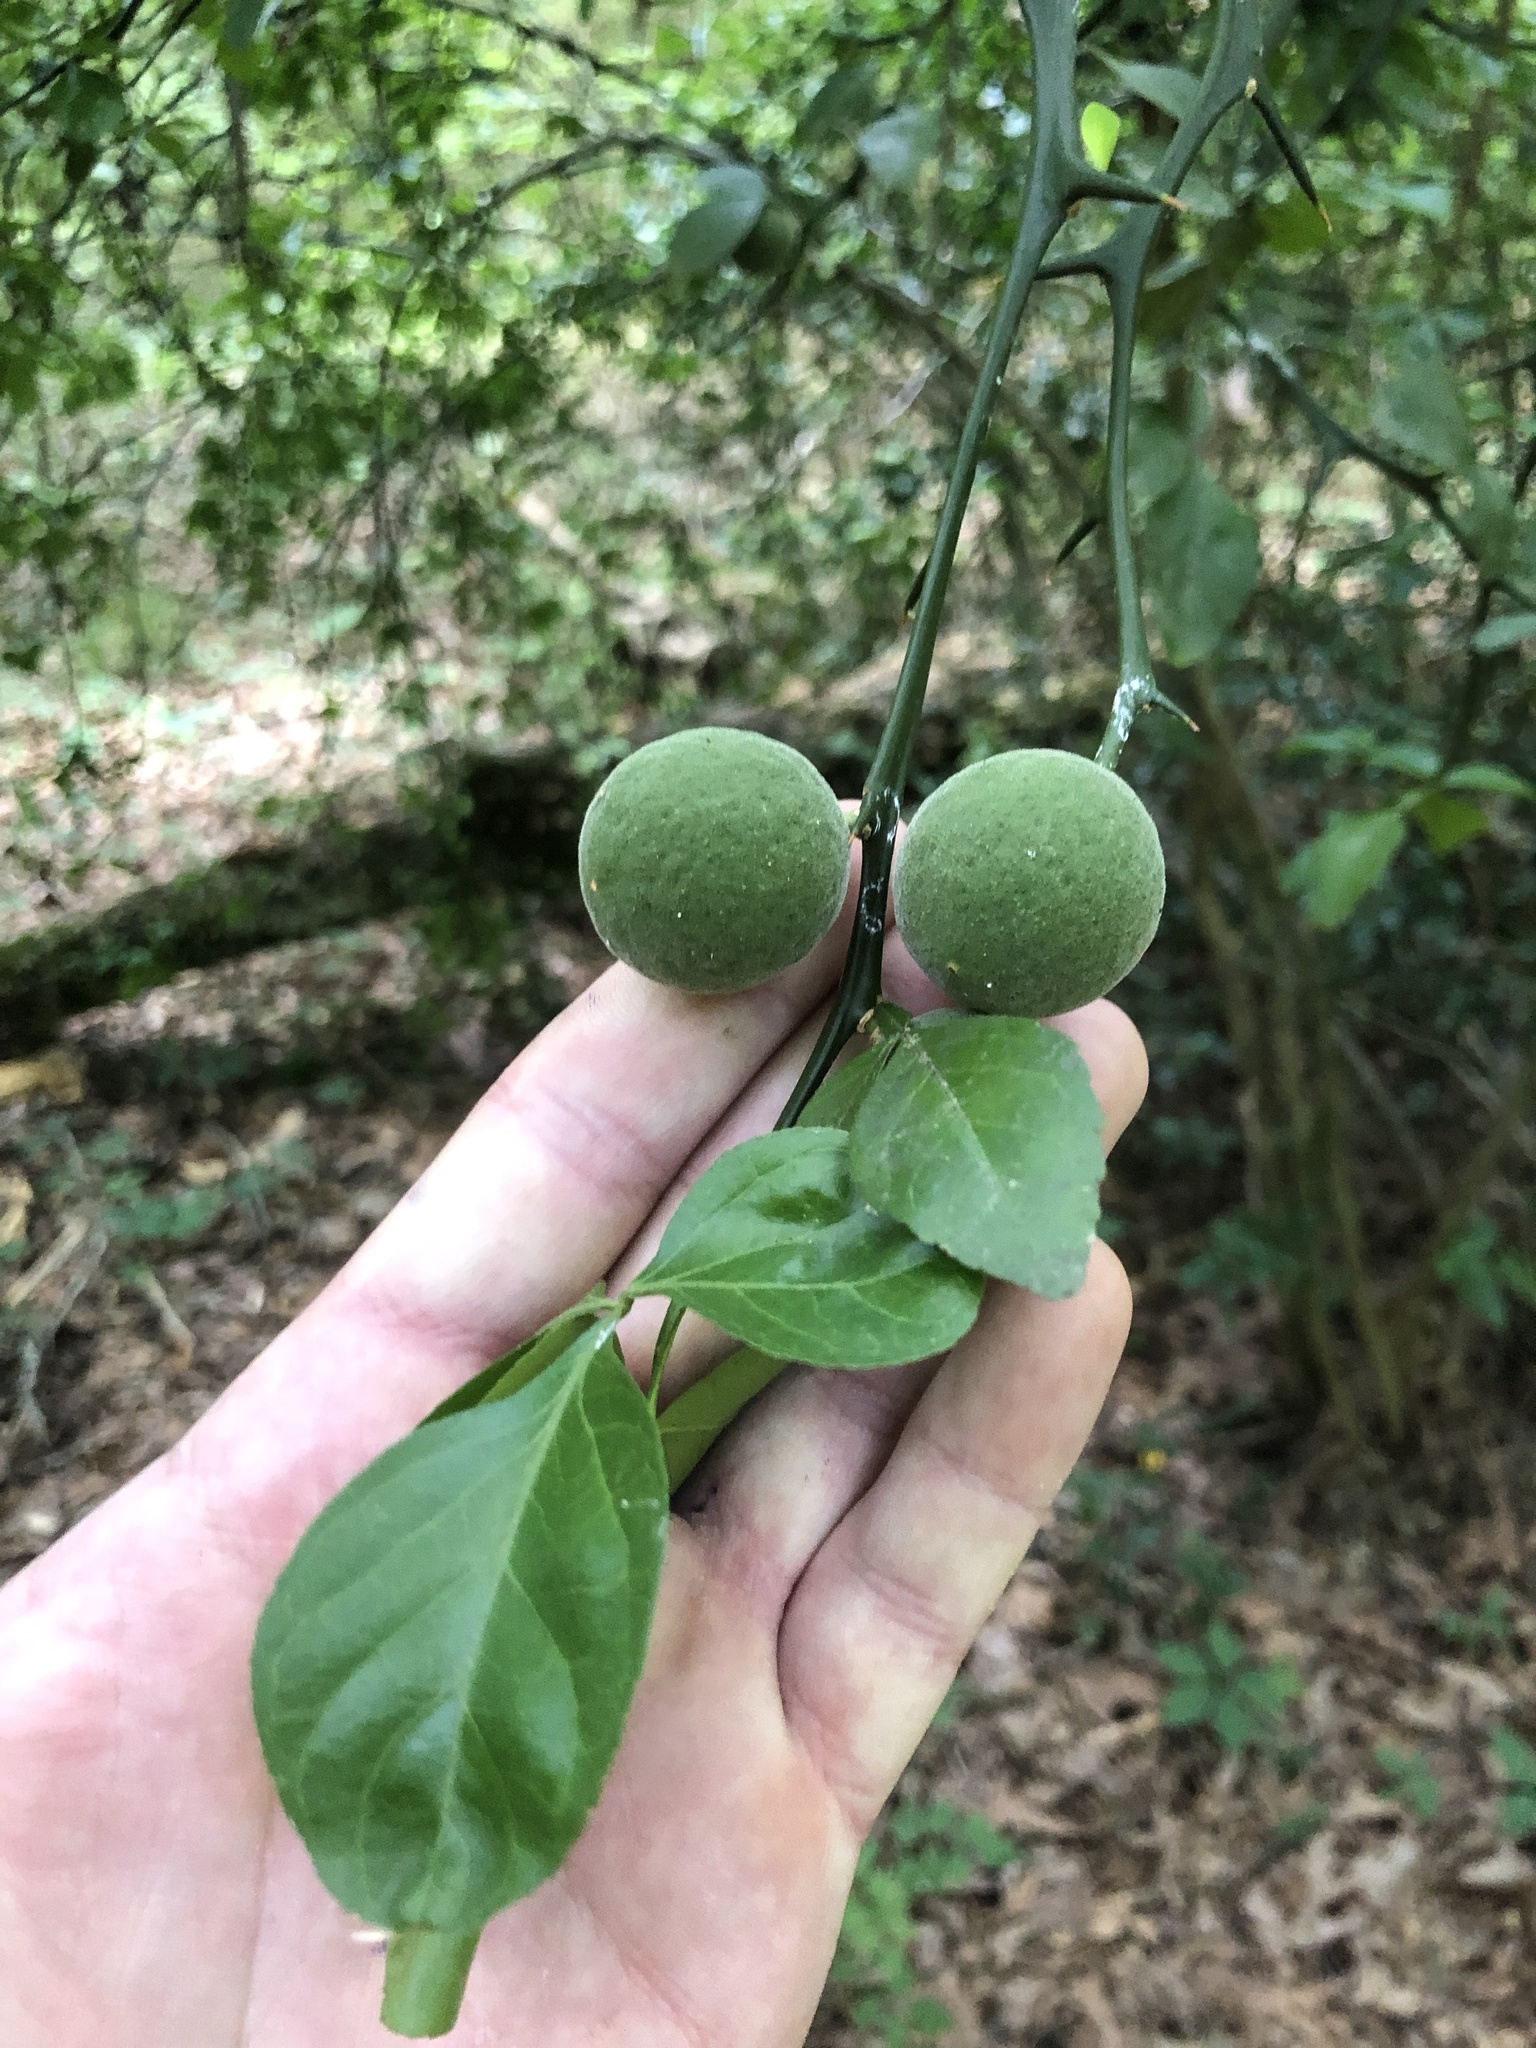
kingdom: Plantae
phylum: Tracheophyta
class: Magnoliopsida
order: Sapindales
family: Rutaceae
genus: Citrus
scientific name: Citrus trifoliata
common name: Japanese bitter-orange
